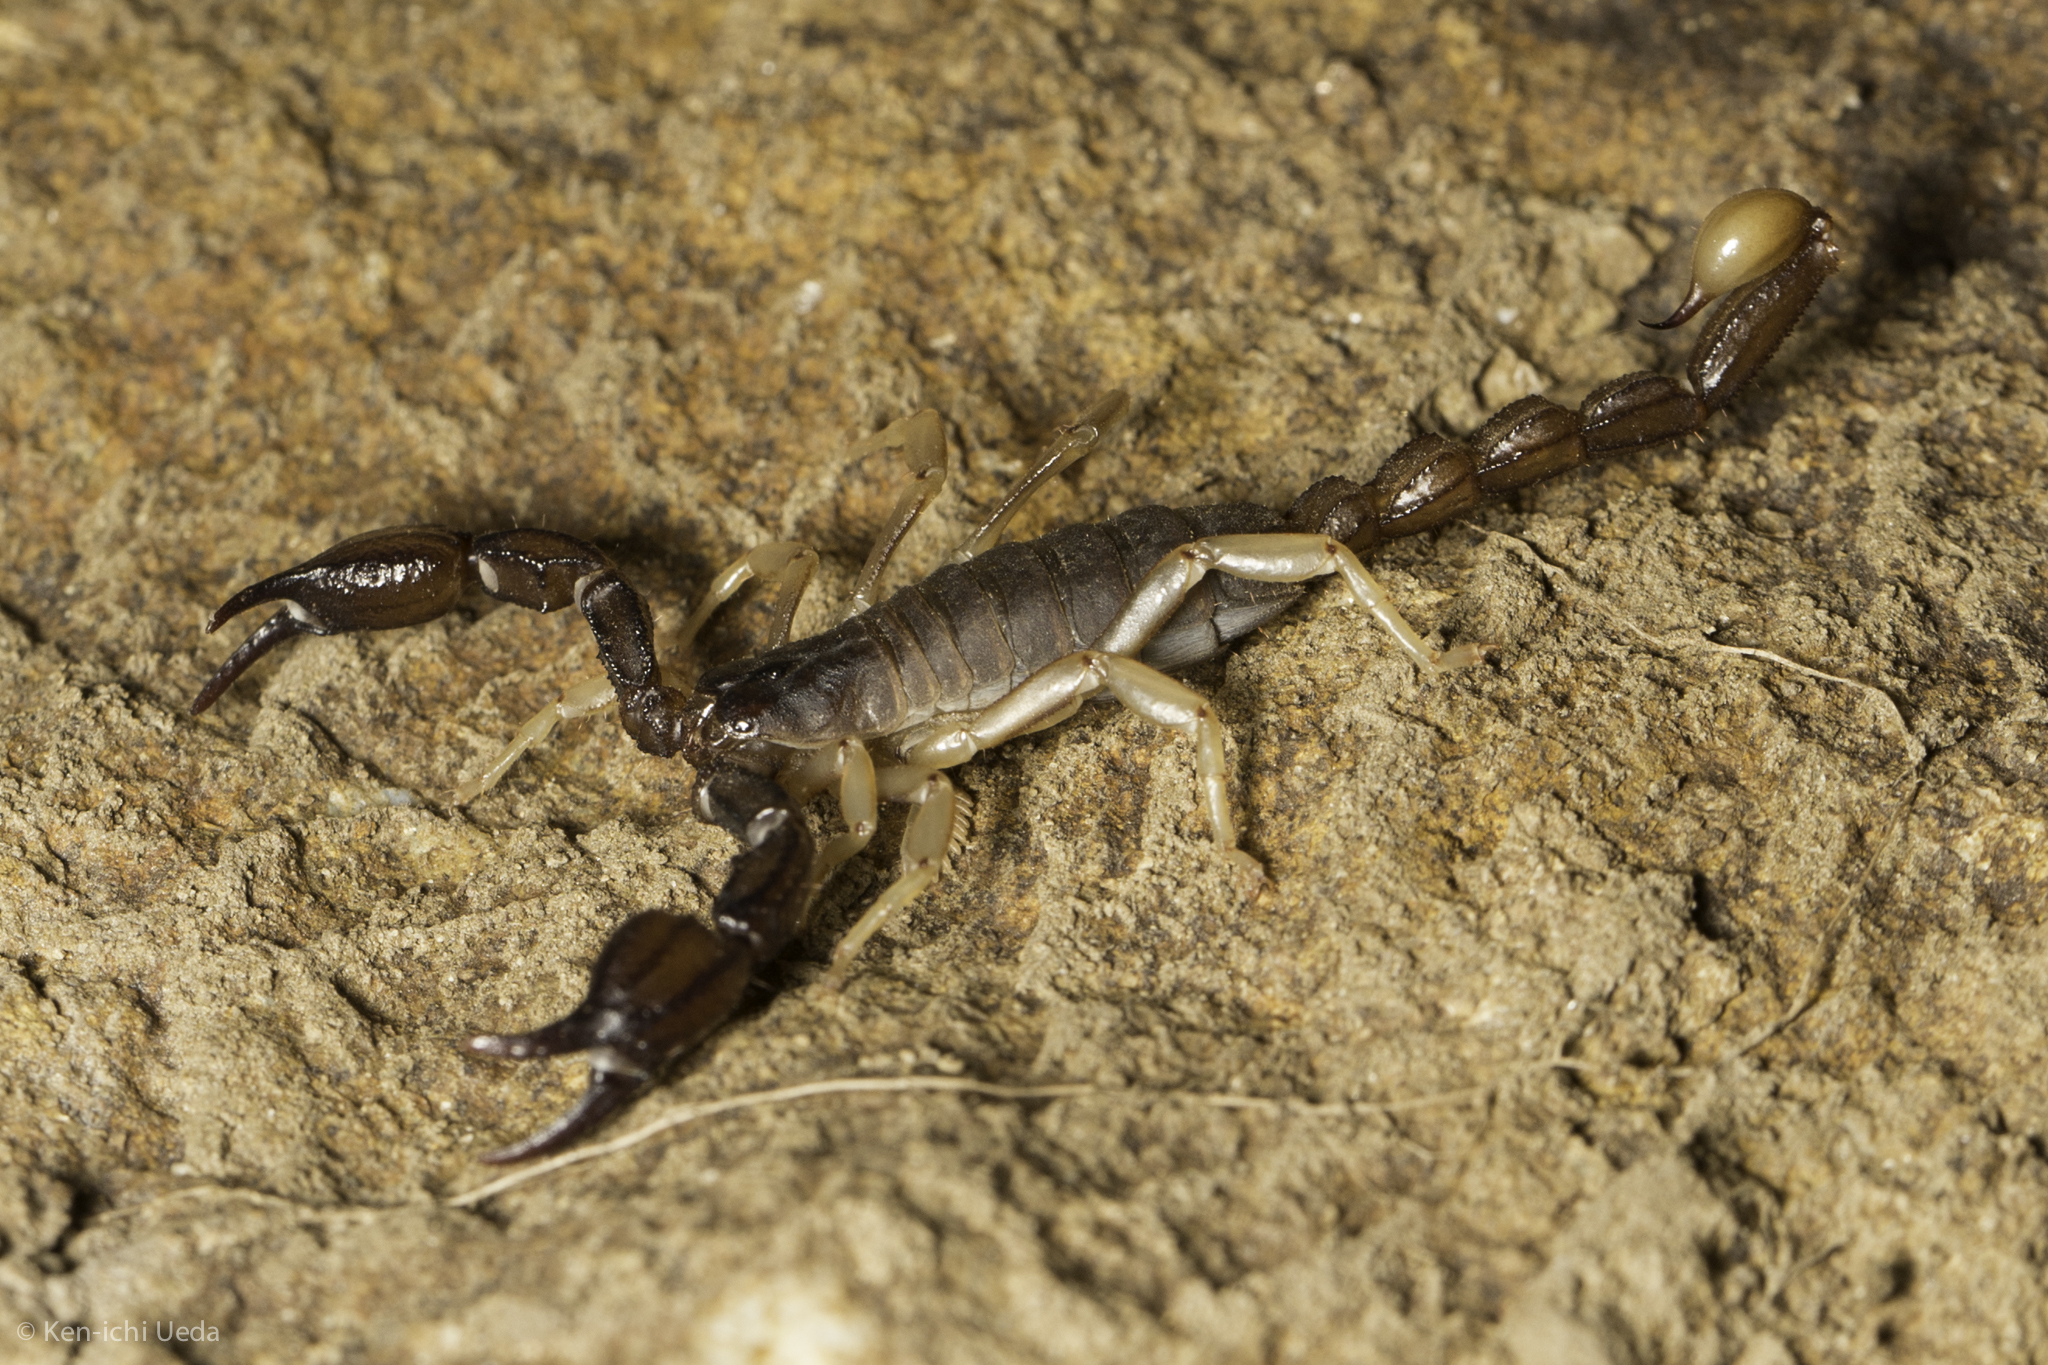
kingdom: Animalia
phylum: Arthropoda
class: Arachnida
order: Scorpiones
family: Chactidae
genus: Uroctonus
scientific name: Uroctonus mordax
